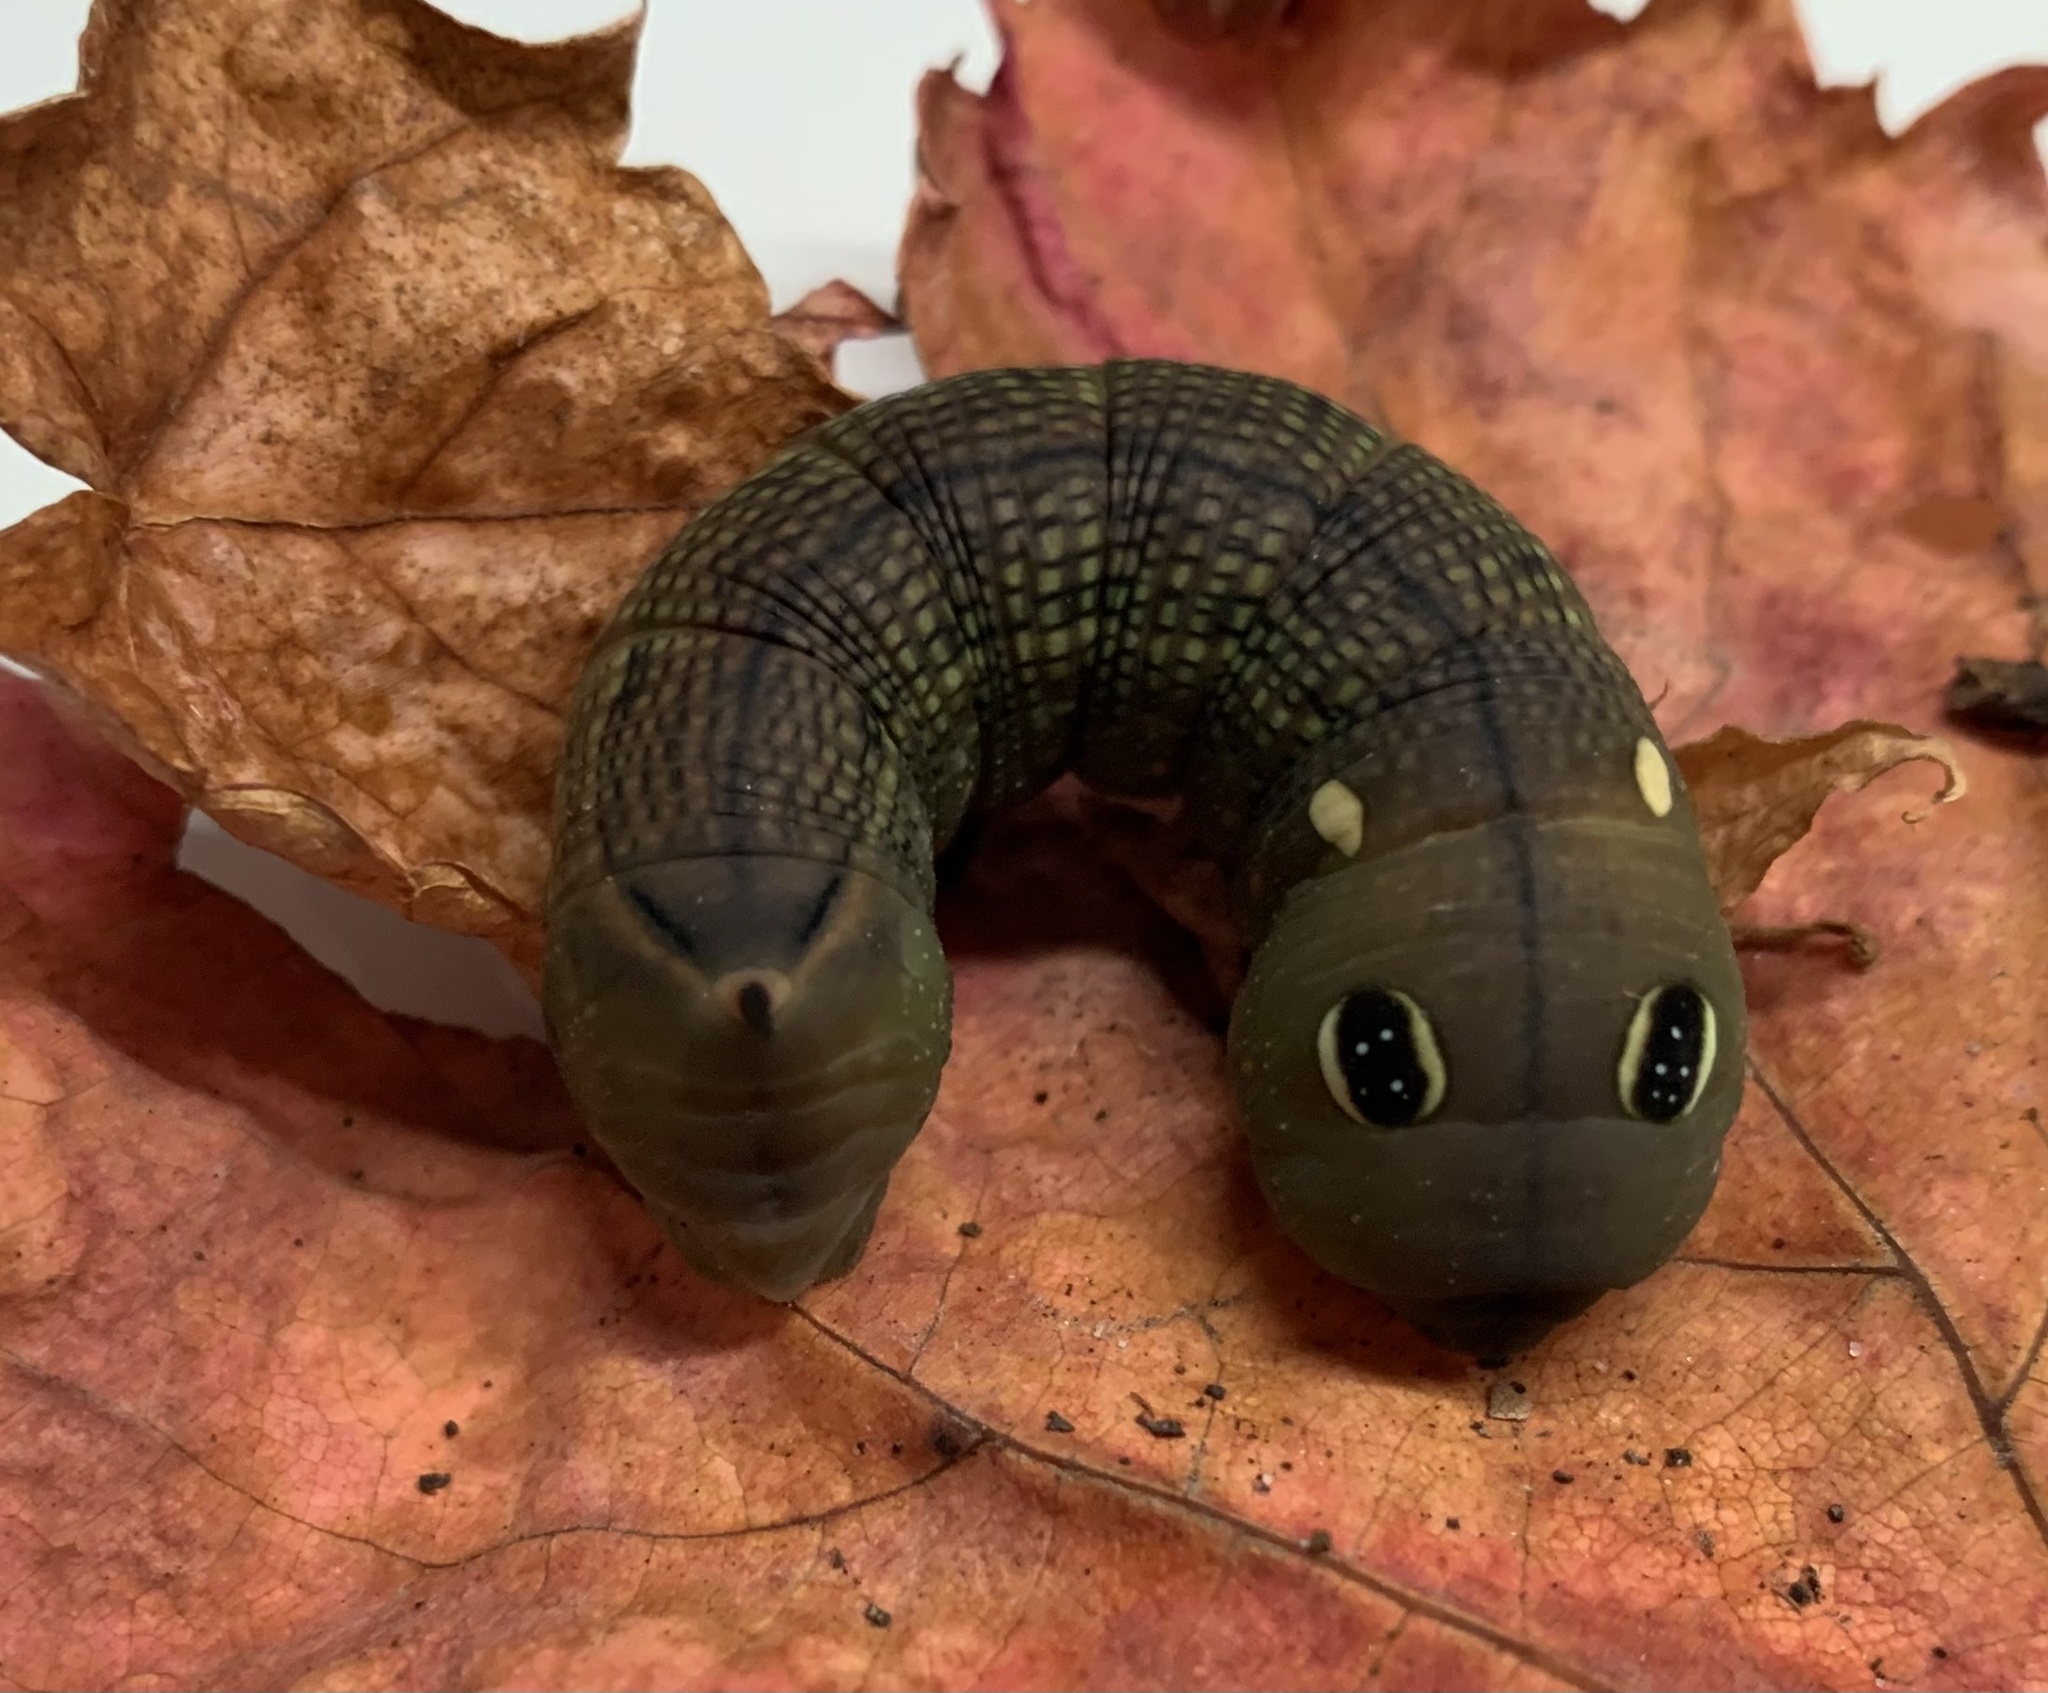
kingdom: Animalia
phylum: Arthropoda
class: Insecta
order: Lepidoptera
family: Sphingidae
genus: Hippotion
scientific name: Hippotion celerio
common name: Silver-striped hawk-moth
